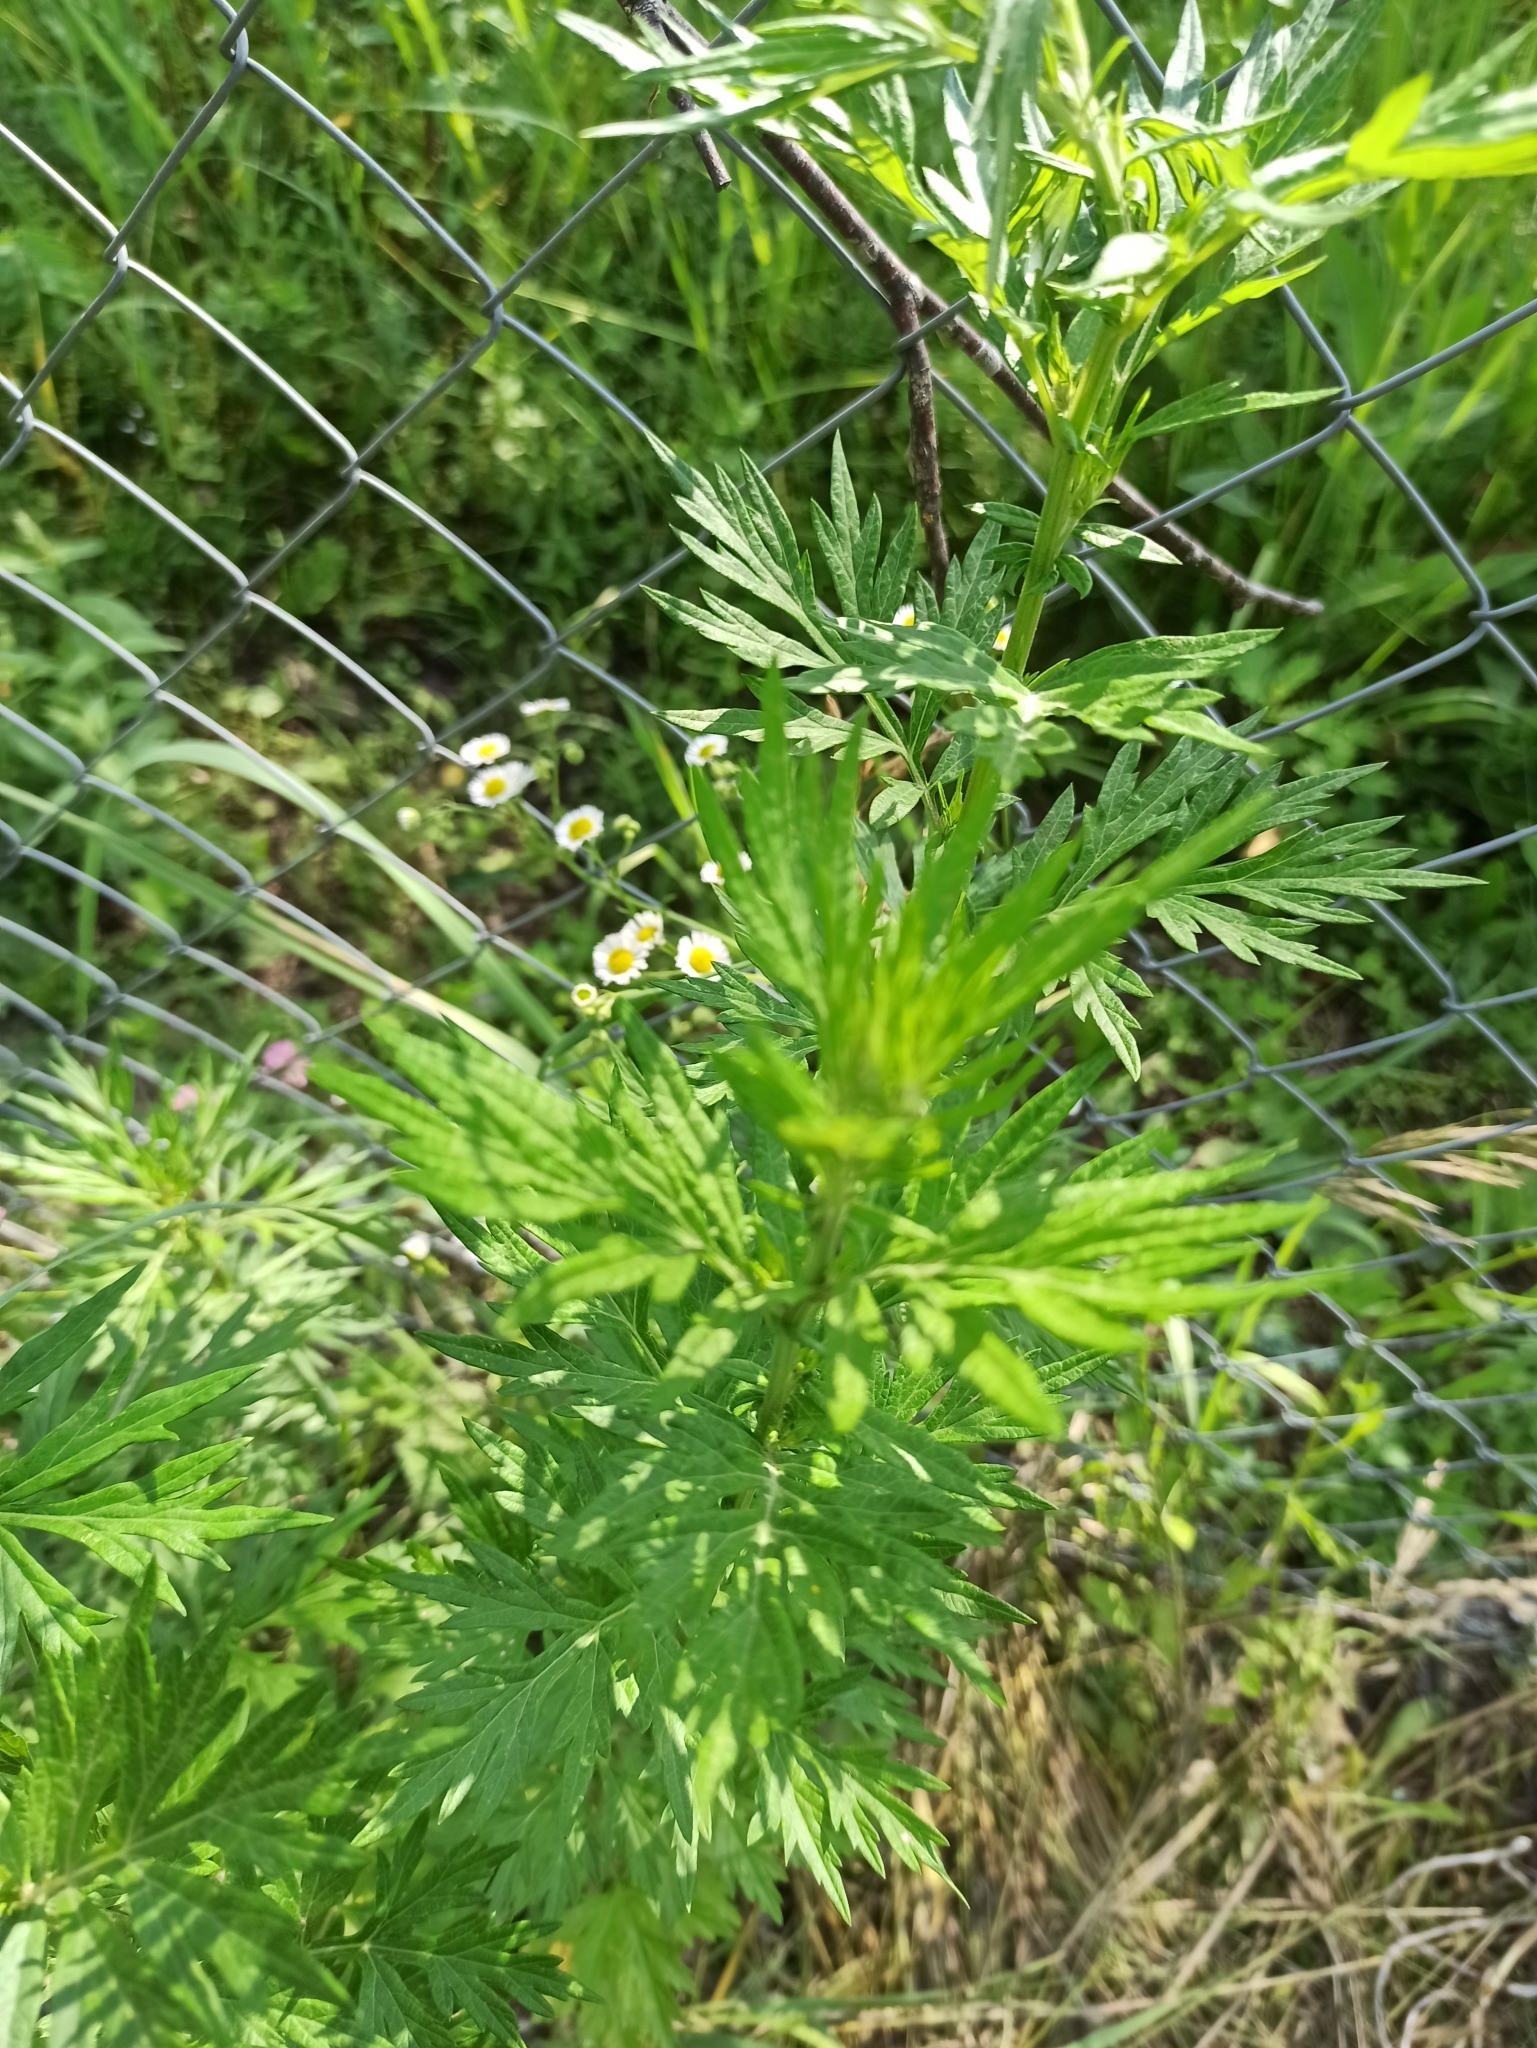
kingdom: Plantae
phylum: Tracheophyta
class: Magnoliopsida
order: Asterales
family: Asteraceae
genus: Artemisia
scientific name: Artemisia vulgaris
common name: Mugwort
